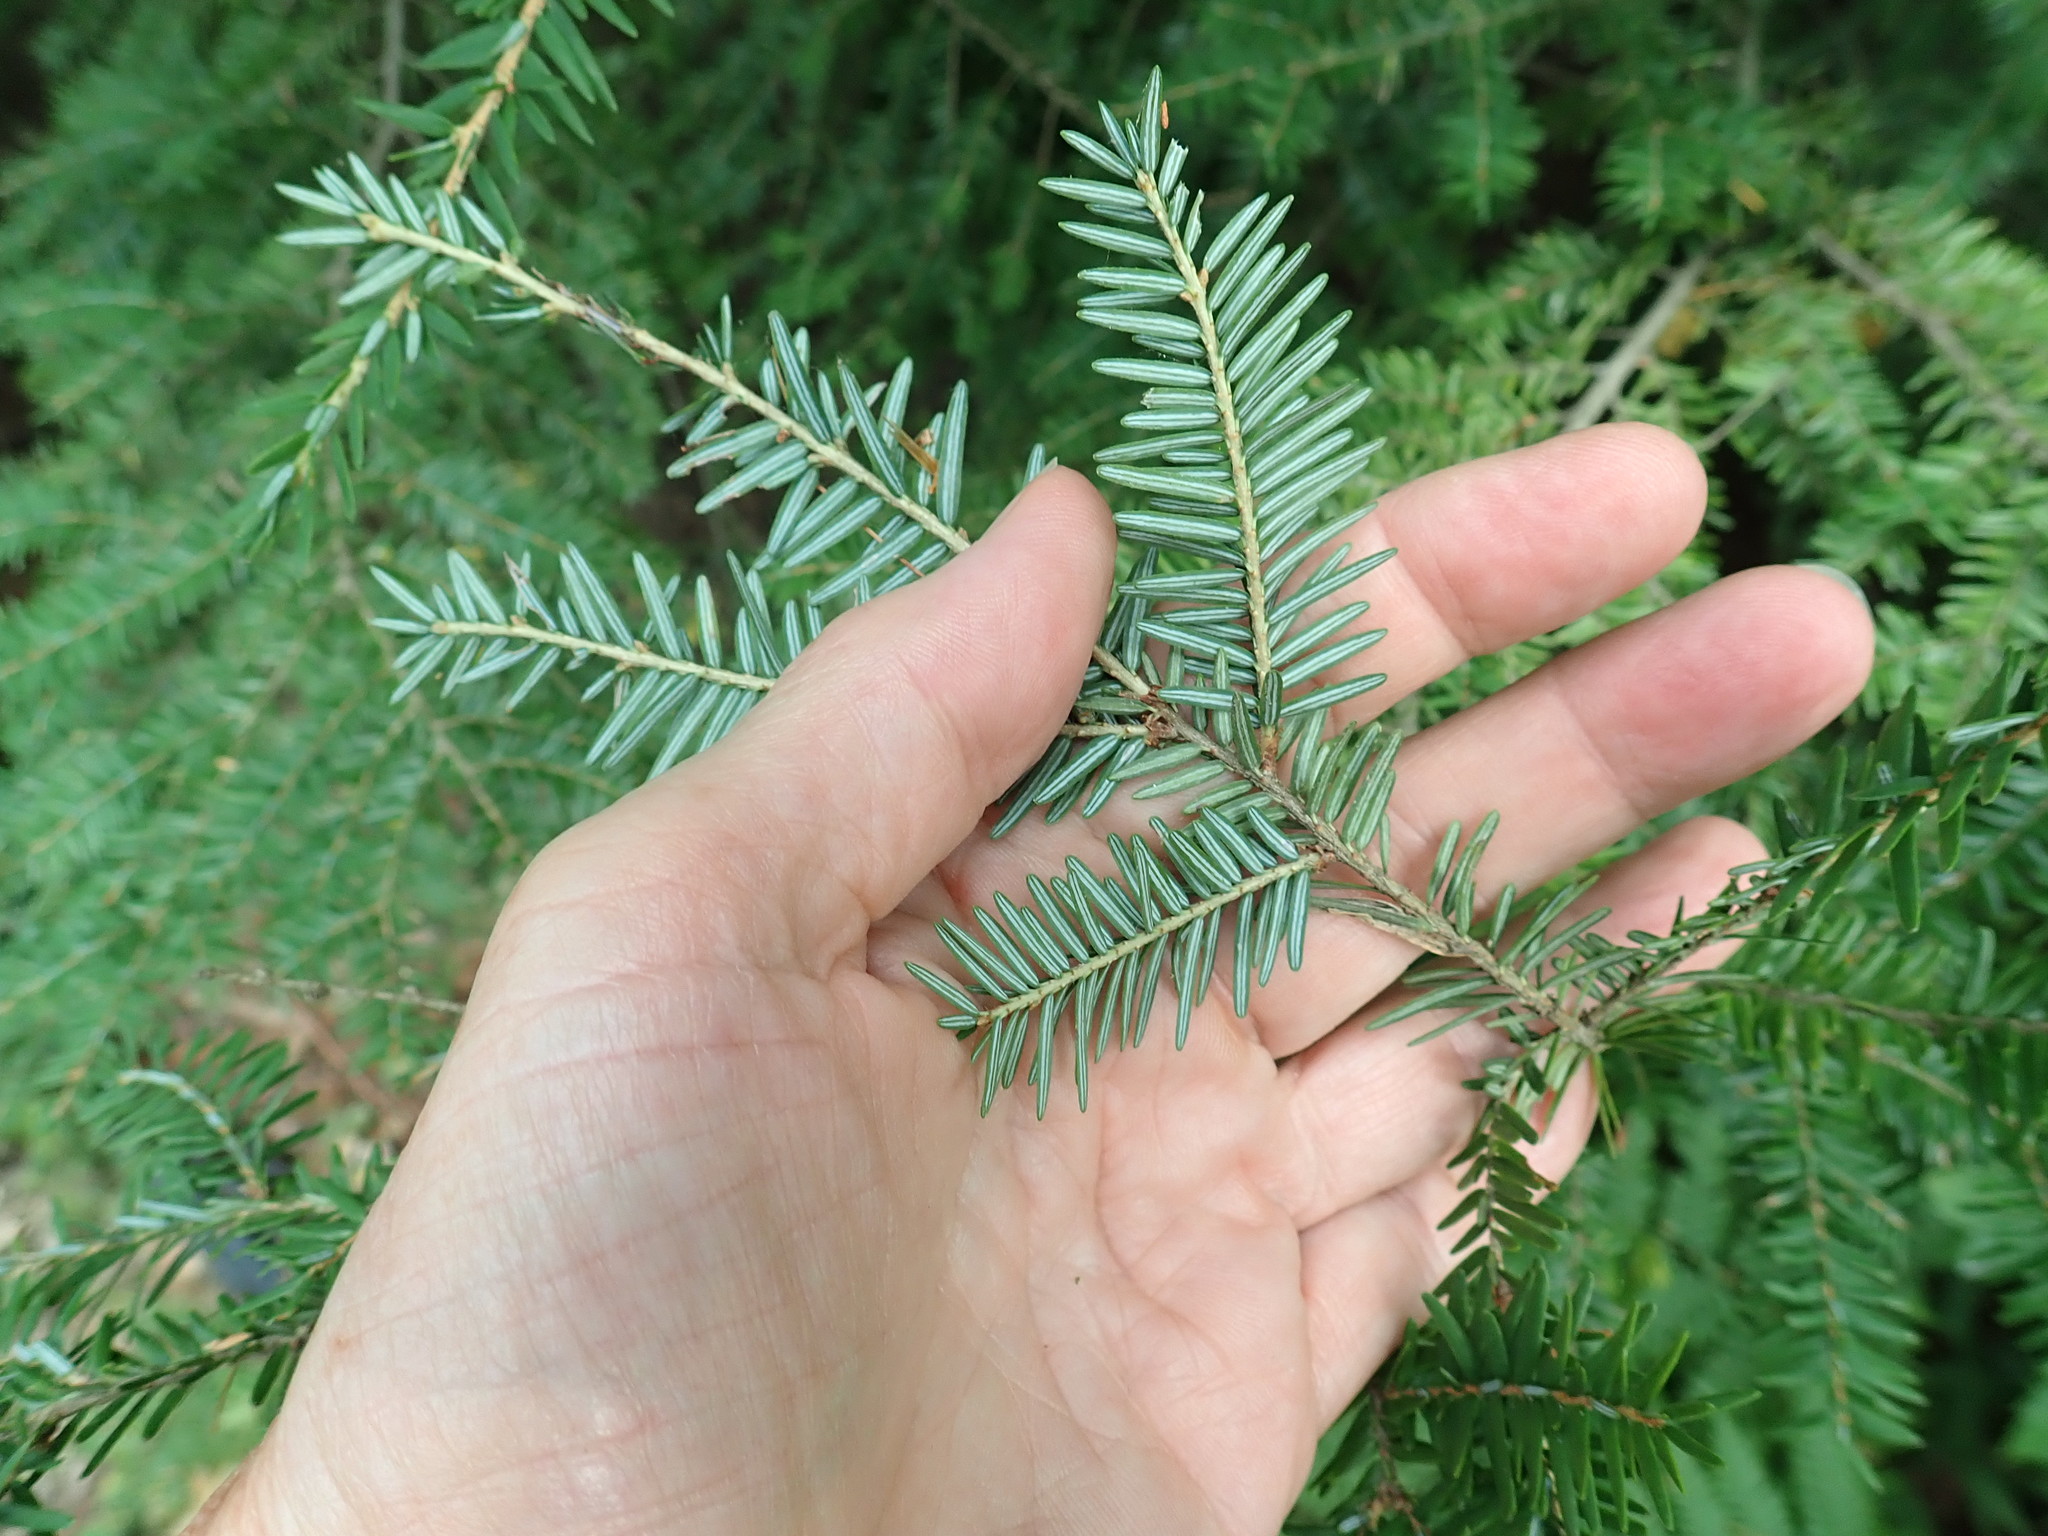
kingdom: Plantae
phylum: Tracheophyta
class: Pinopsida
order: Pinales
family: Pinaceae
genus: Tsuga
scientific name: Tsuga canadensis
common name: Eastern hemlock
